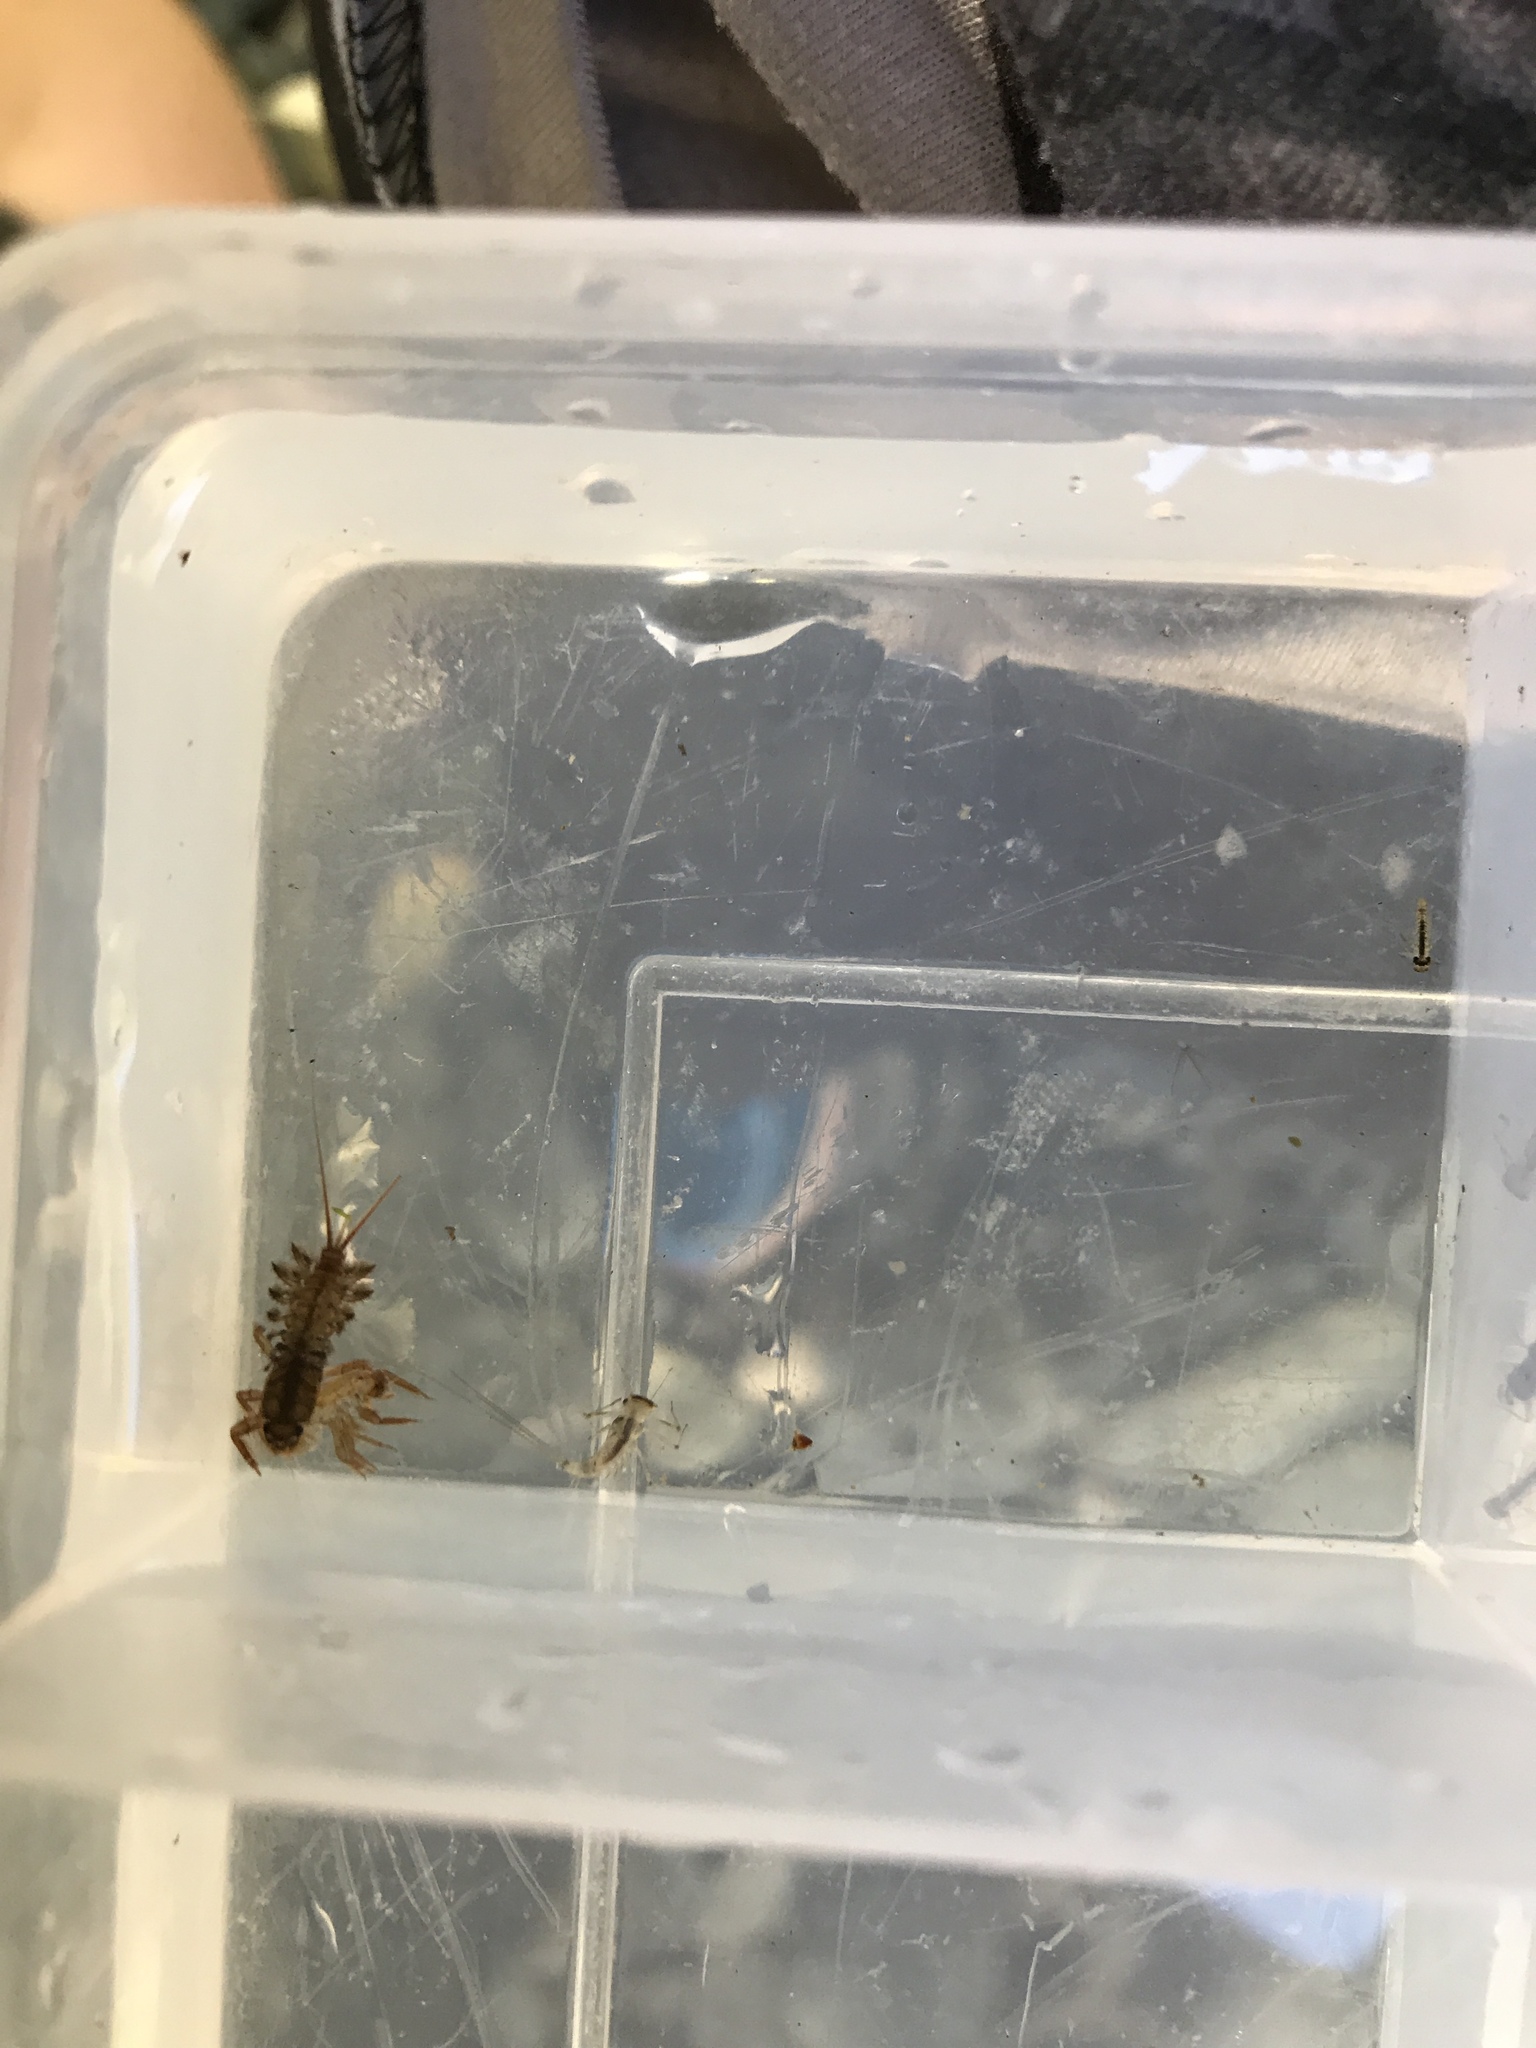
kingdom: Animalia
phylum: Arthropoda
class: Insecta
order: Ephemeroptera
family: Coloburiscidae
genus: Coloburiscus
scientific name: Coloburiscus humeralis
